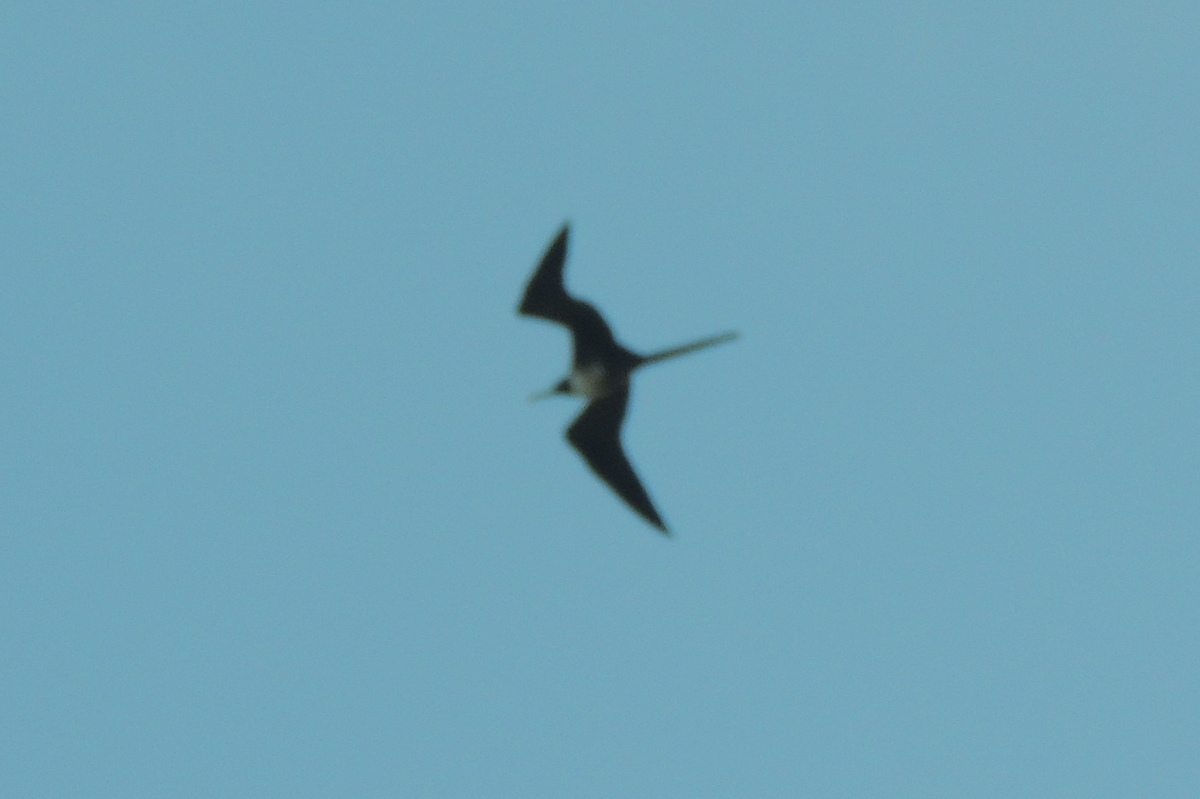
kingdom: Animalia
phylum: Chordata
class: Aves
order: Suliformes
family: Fregatidae
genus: Fregata
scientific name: Fregata magnificens
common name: Magnificent frigatebird
